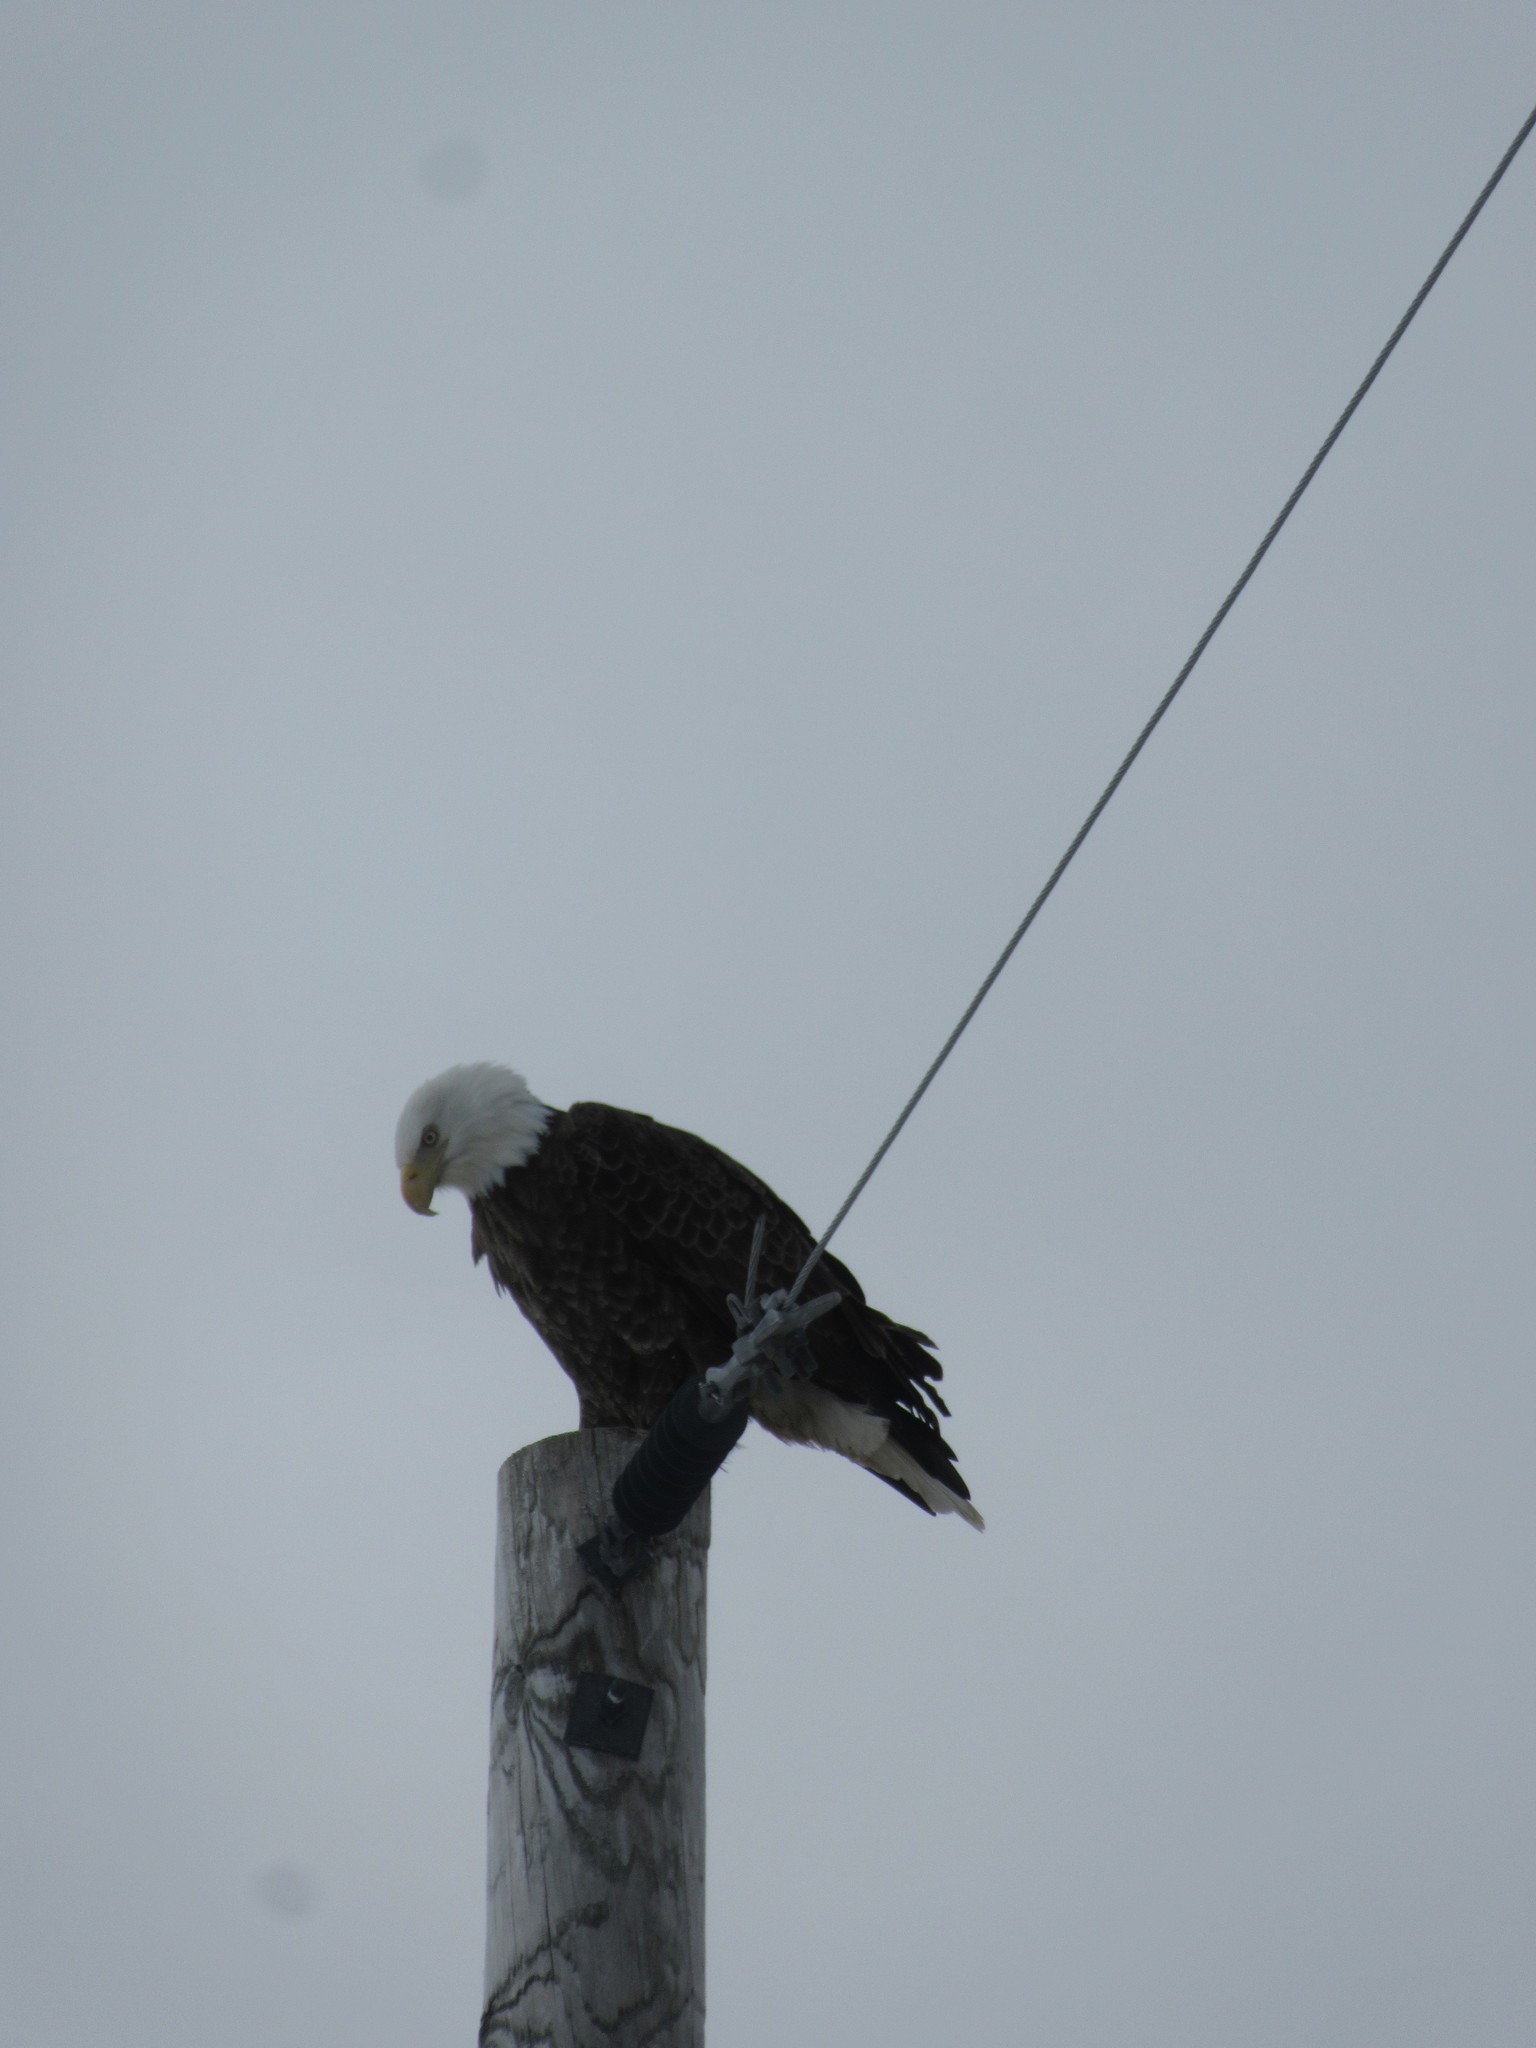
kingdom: Animalia
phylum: Chordata
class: Aves
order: Accipitriformes
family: Accipitridae
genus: Haliaeetus
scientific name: Haliaeetus leucocephalus
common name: Bald eagle
